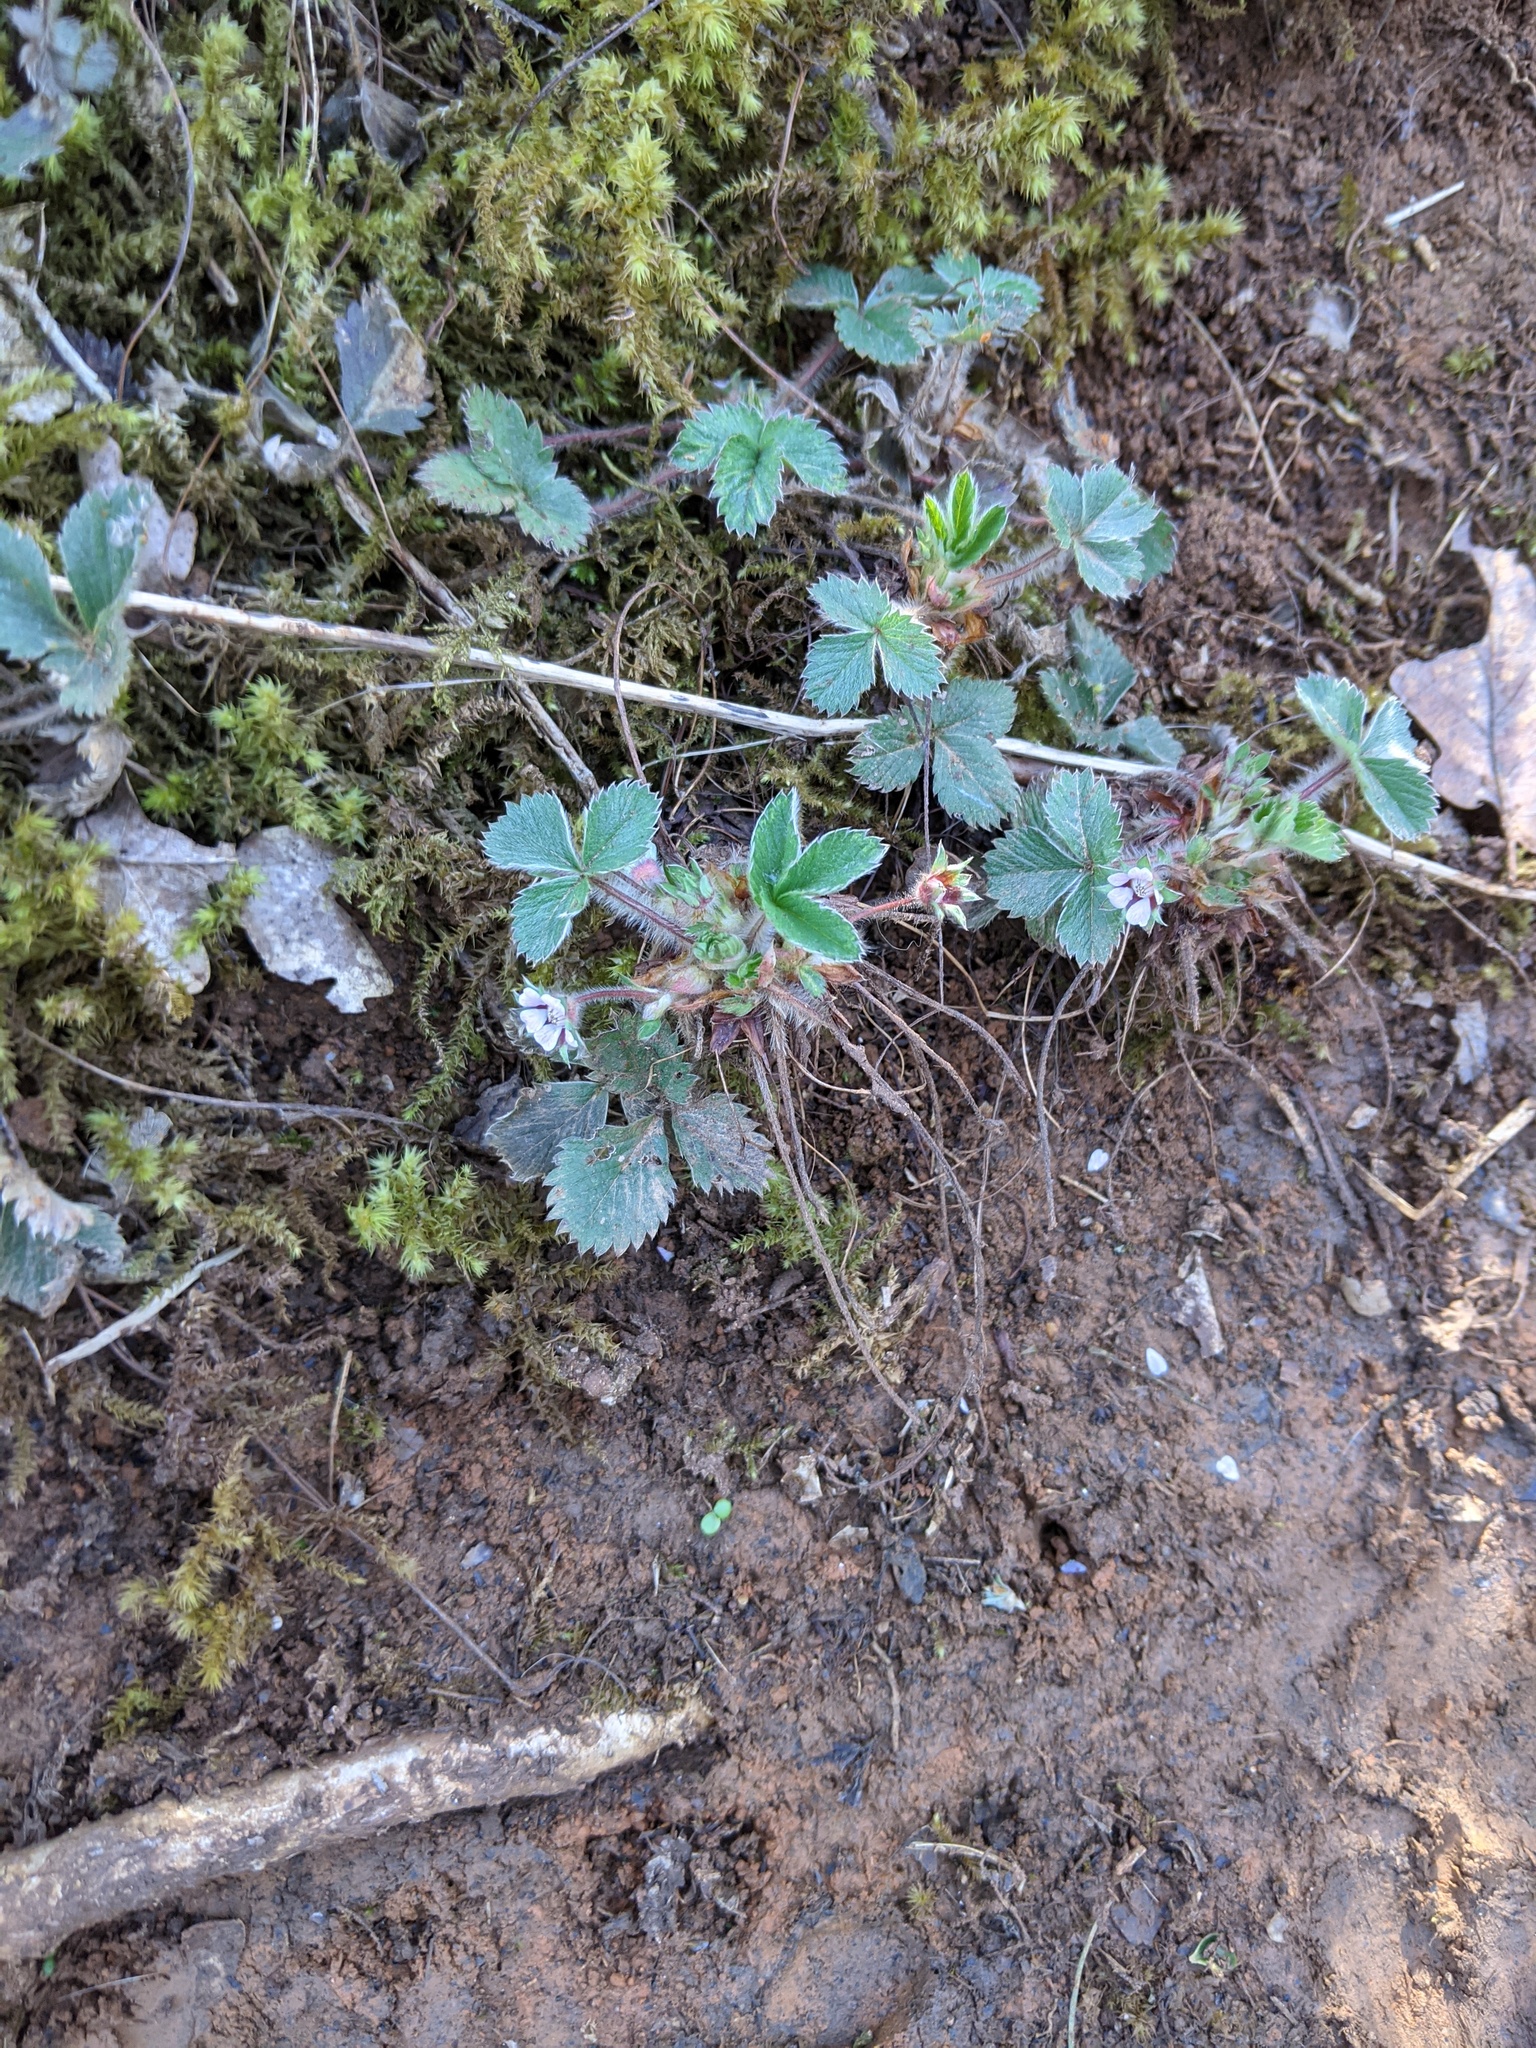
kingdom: Plantae
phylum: Tracheophyta
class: Magnoliopsida
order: Rosales
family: Rosaceae
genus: Potentilla
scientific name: Potentilla micrantha
